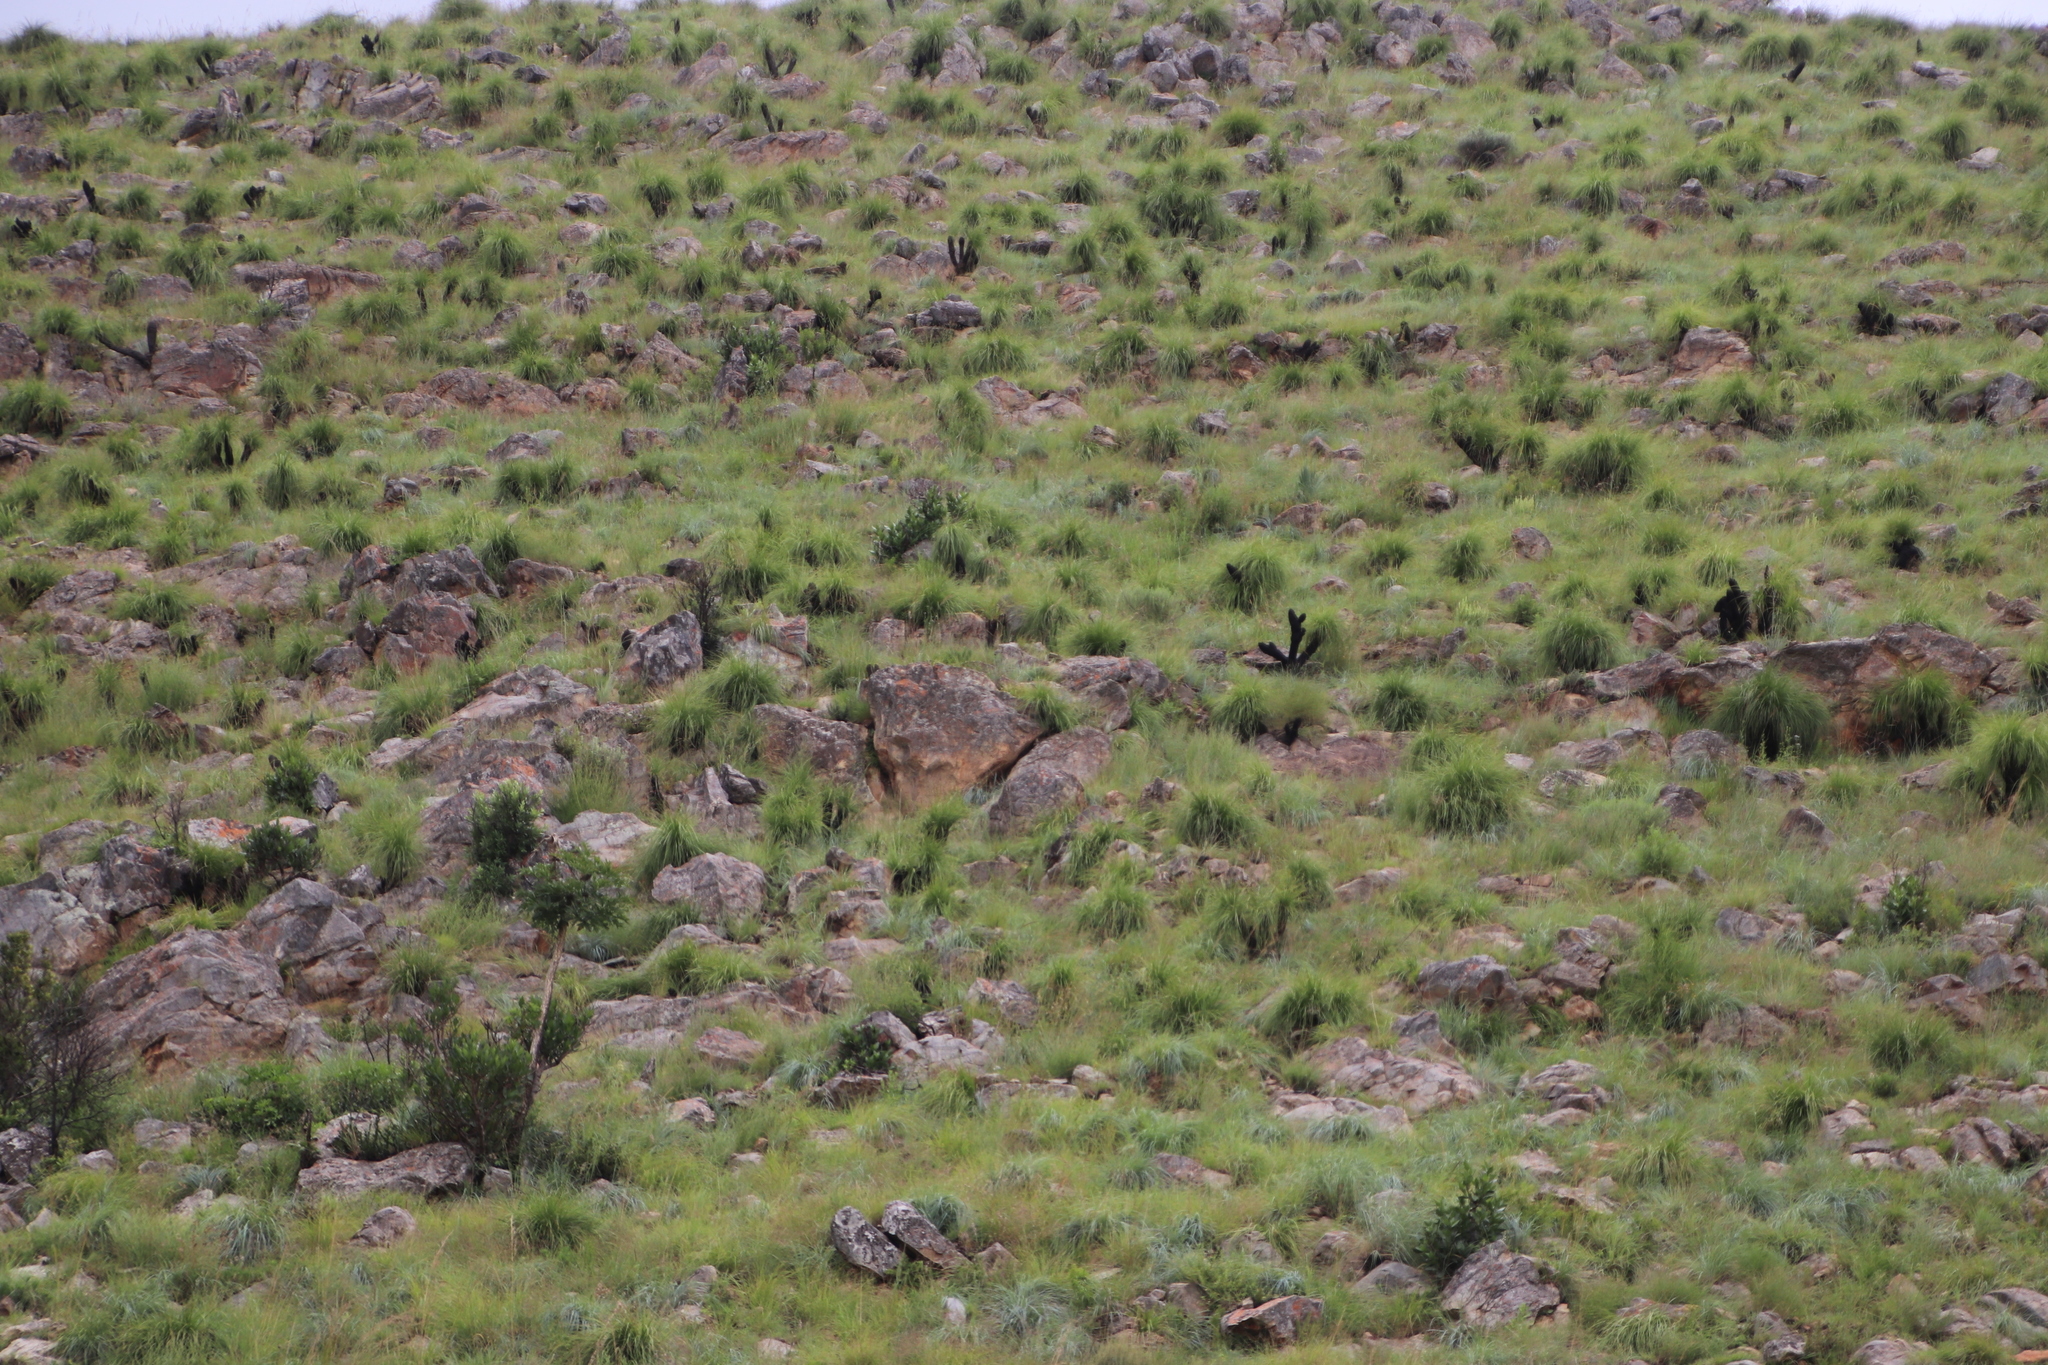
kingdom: Plantae
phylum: Tracheophyta
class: Liliopsida
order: Pandanales
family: Velloziaceae
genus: Xerophyta
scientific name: Xerophyta retinervis
